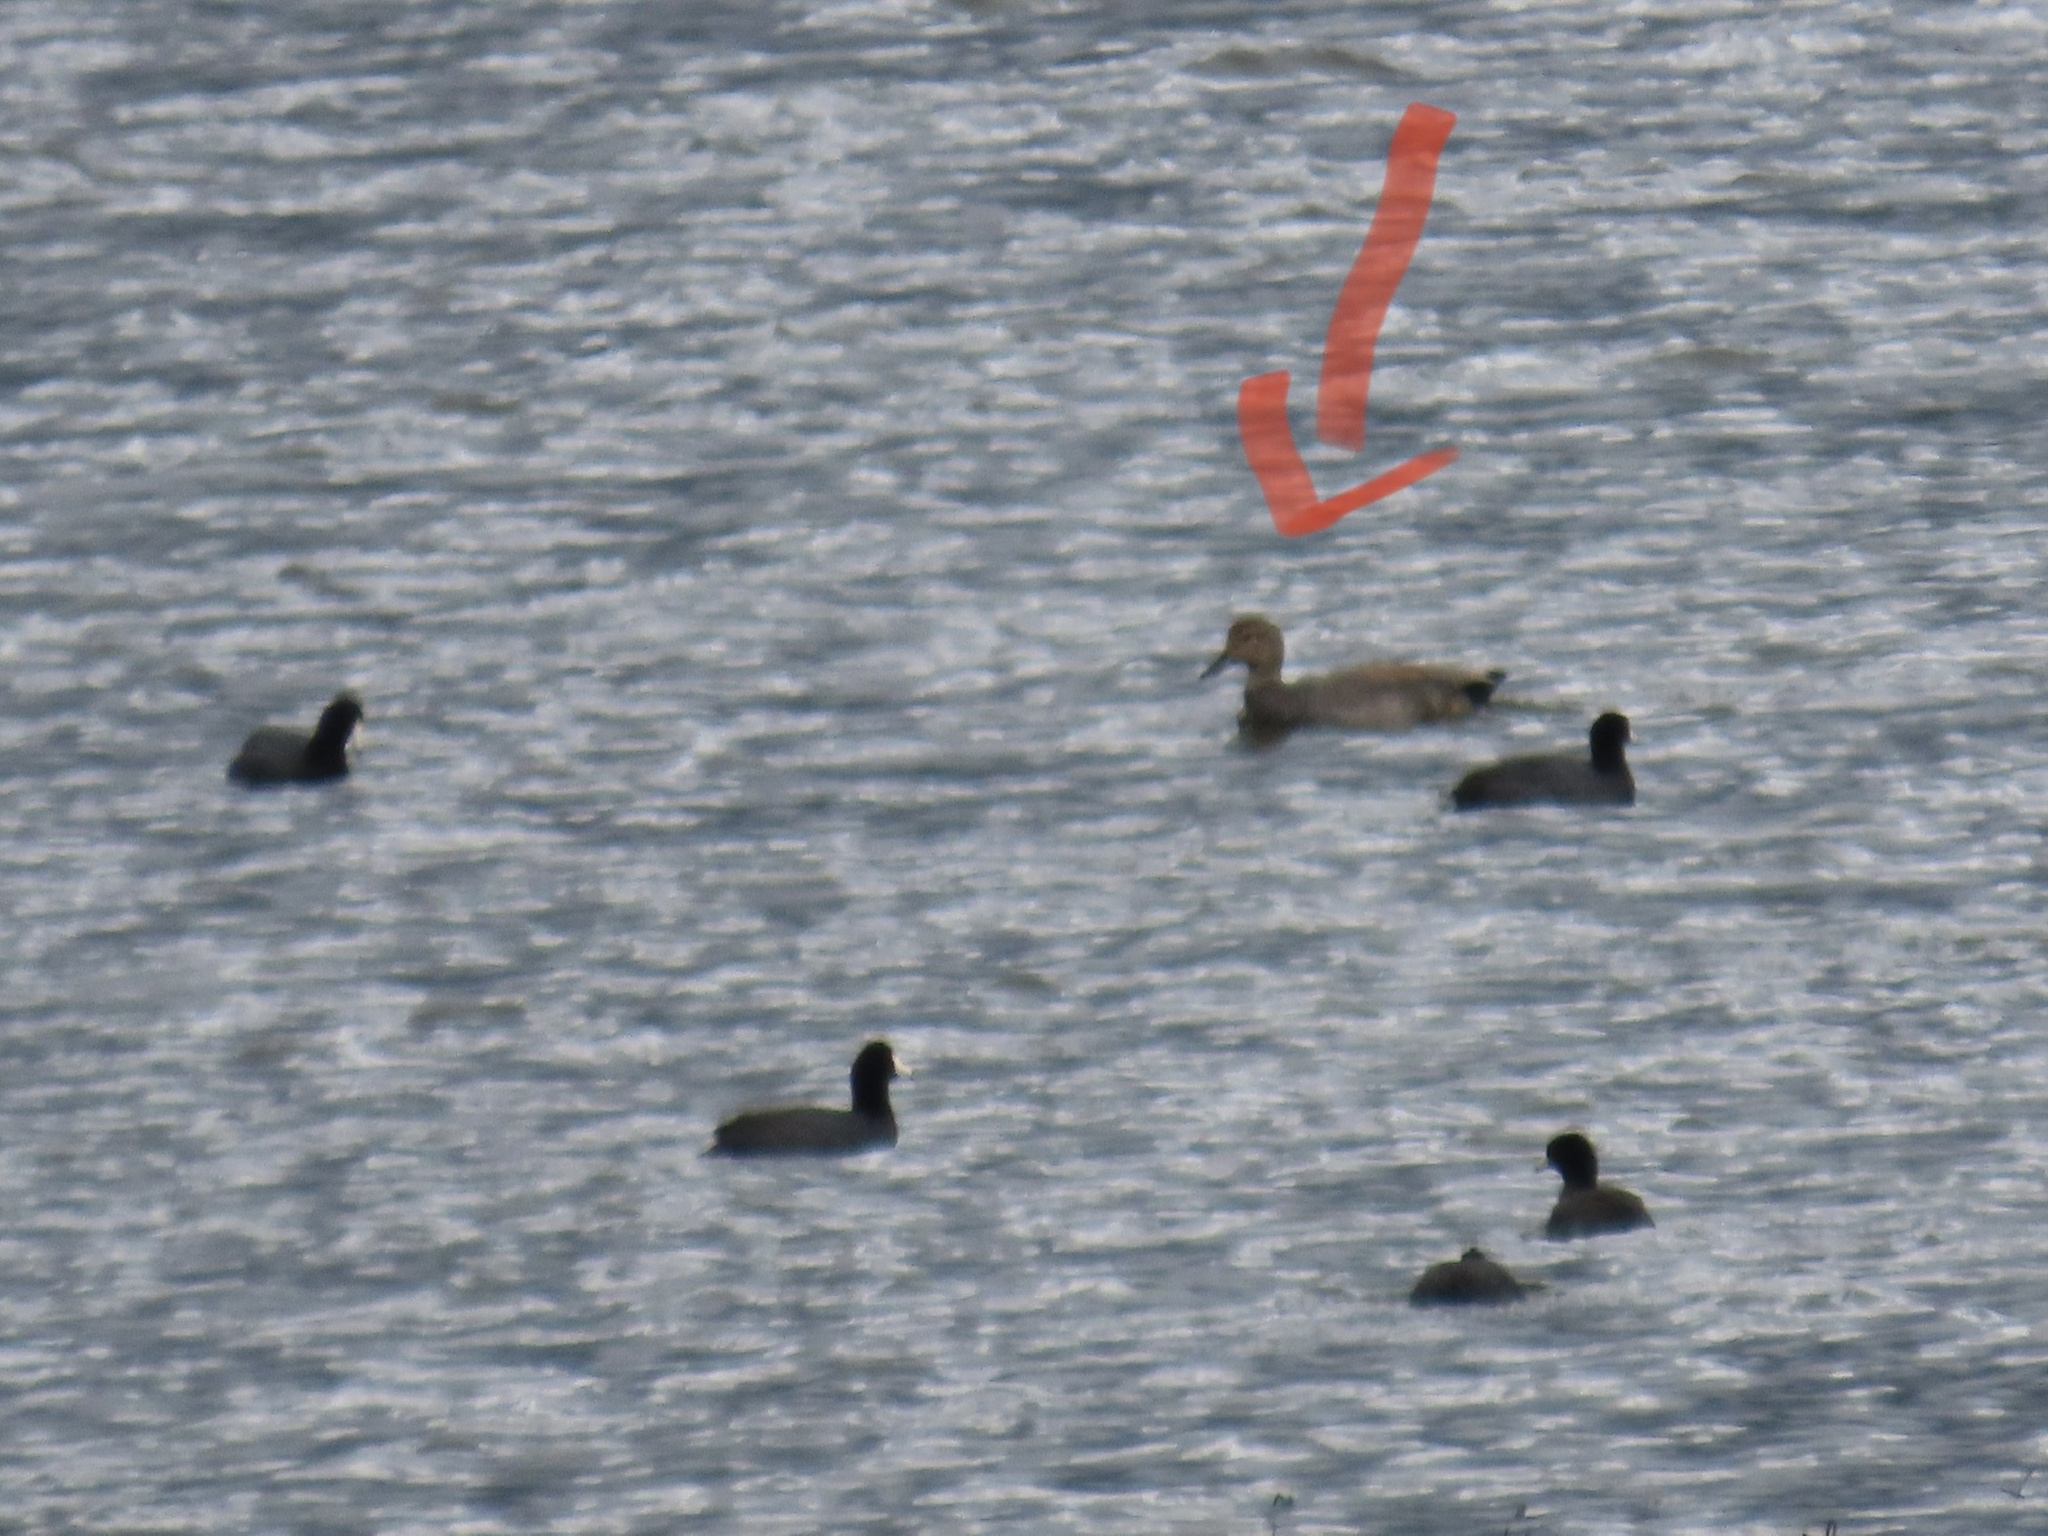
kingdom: Animalia
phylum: Chordata
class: Aves
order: Anseriformes
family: Anatidae
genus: Mareca
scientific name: Mareca strepera
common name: Gadwall
